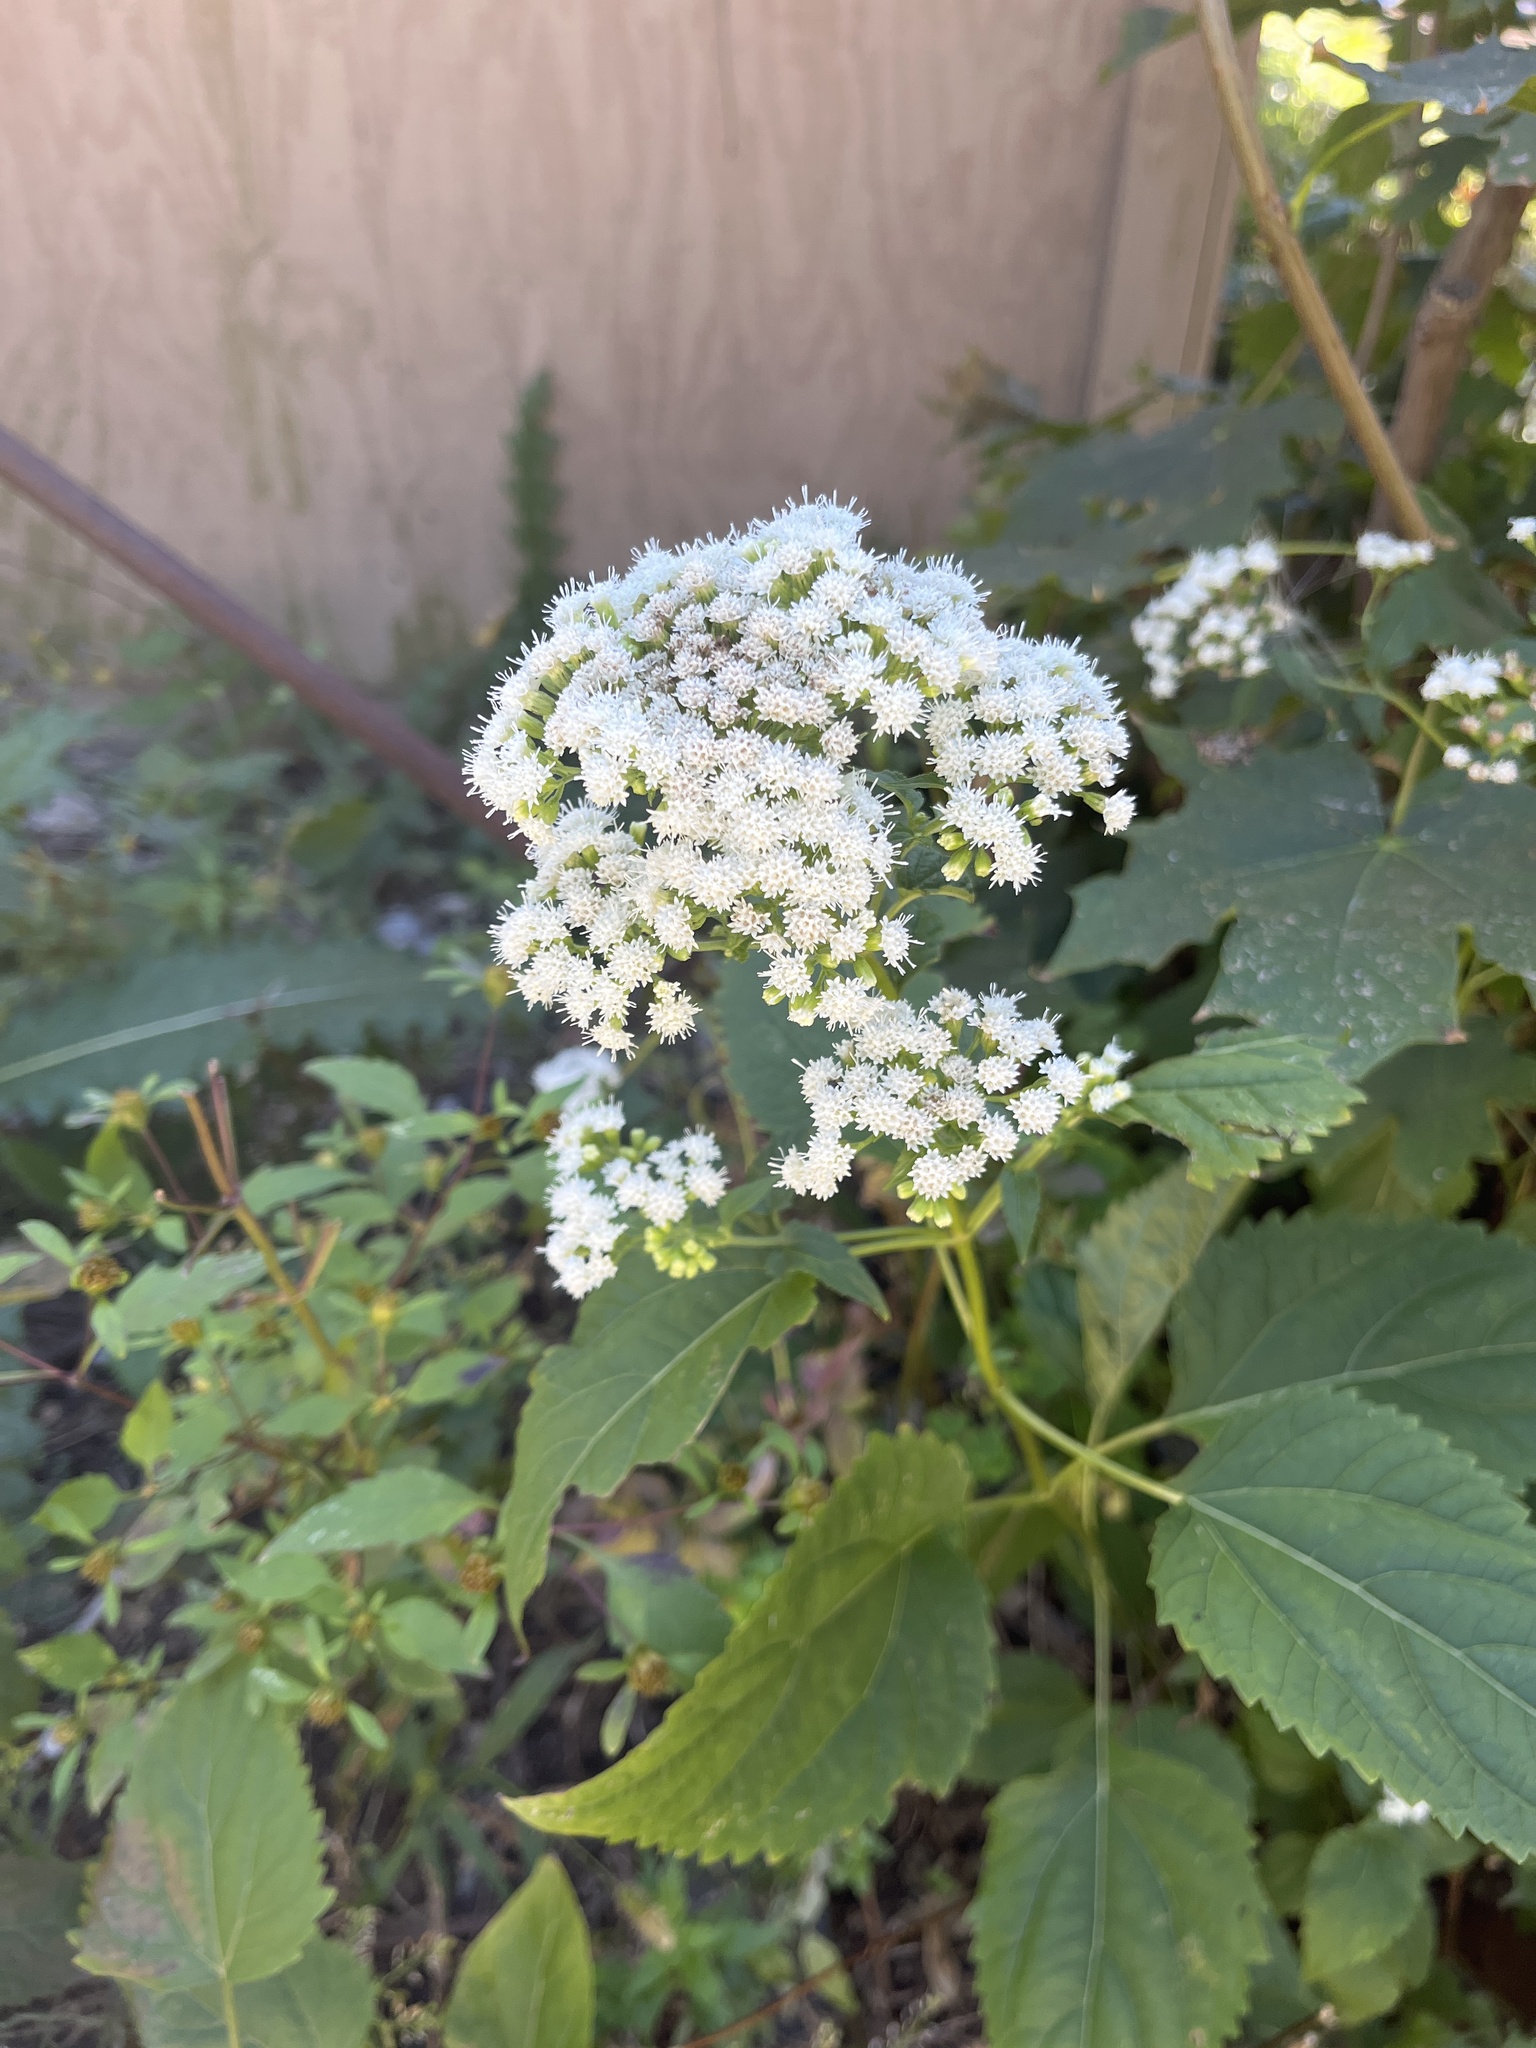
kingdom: Plantae
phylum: Tracheophyta
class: Magnoliopsida
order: Asterales
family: Asteraceae
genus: Ageratina
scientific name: Ageratina altissima
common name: White snakeroot
